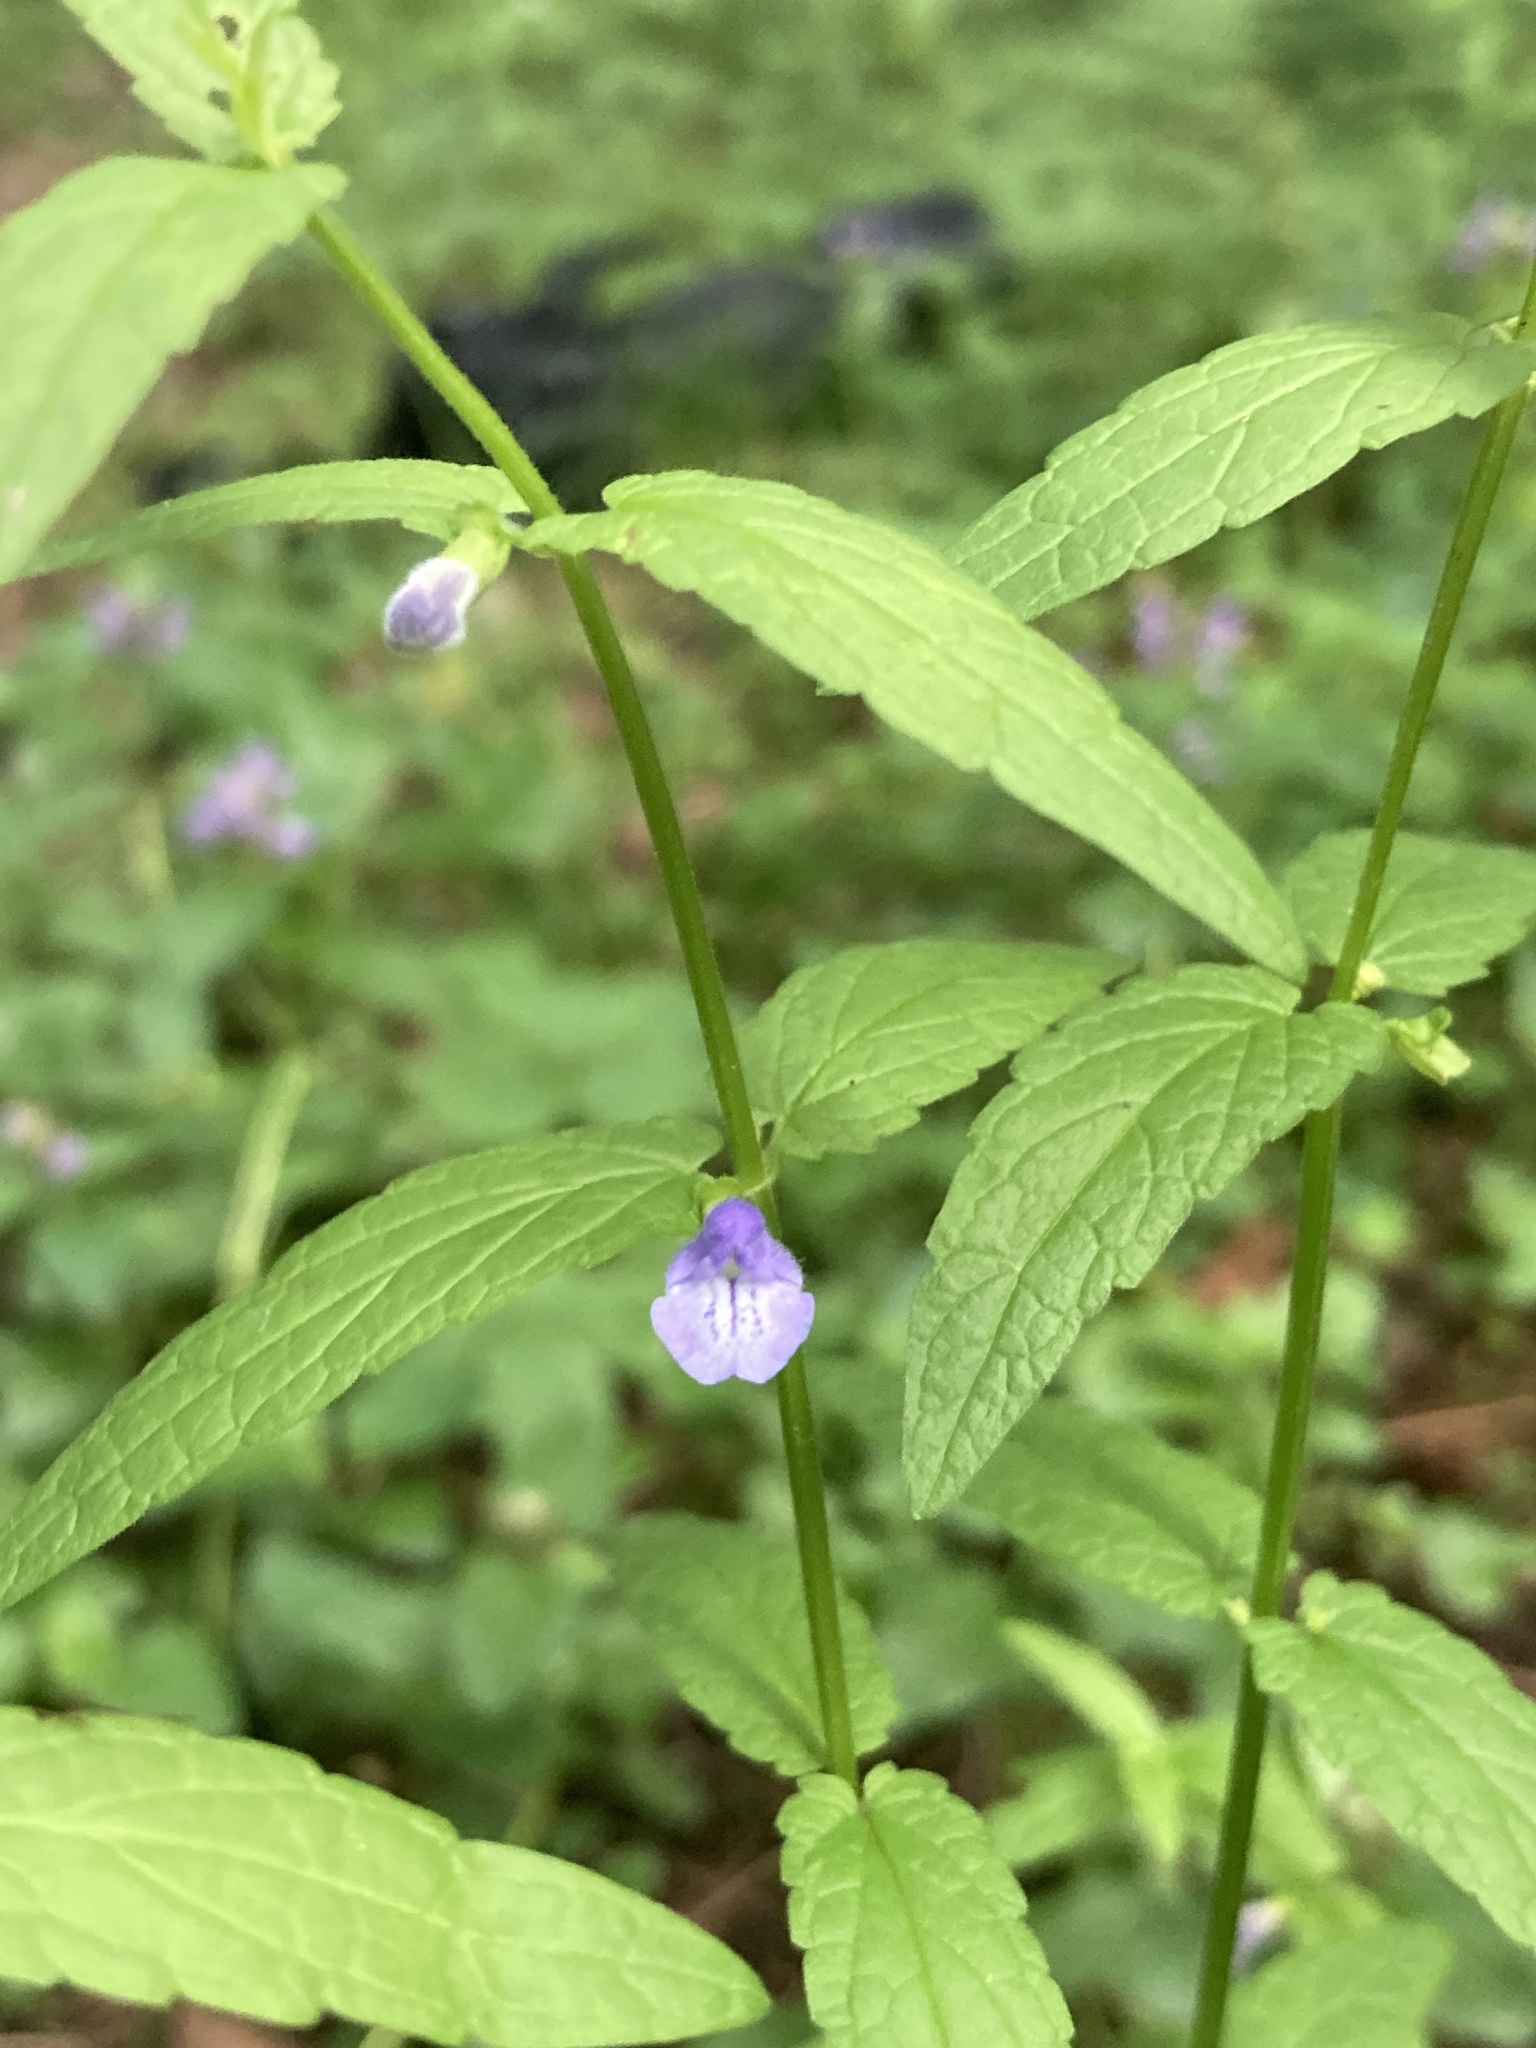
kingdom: Plantae
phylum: Tracheophyta
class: Magnoliopsida
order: Lamiales
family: Lamiaceae
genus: Scutellaria
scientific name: Scutellaria galericulata
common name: Skullcap
